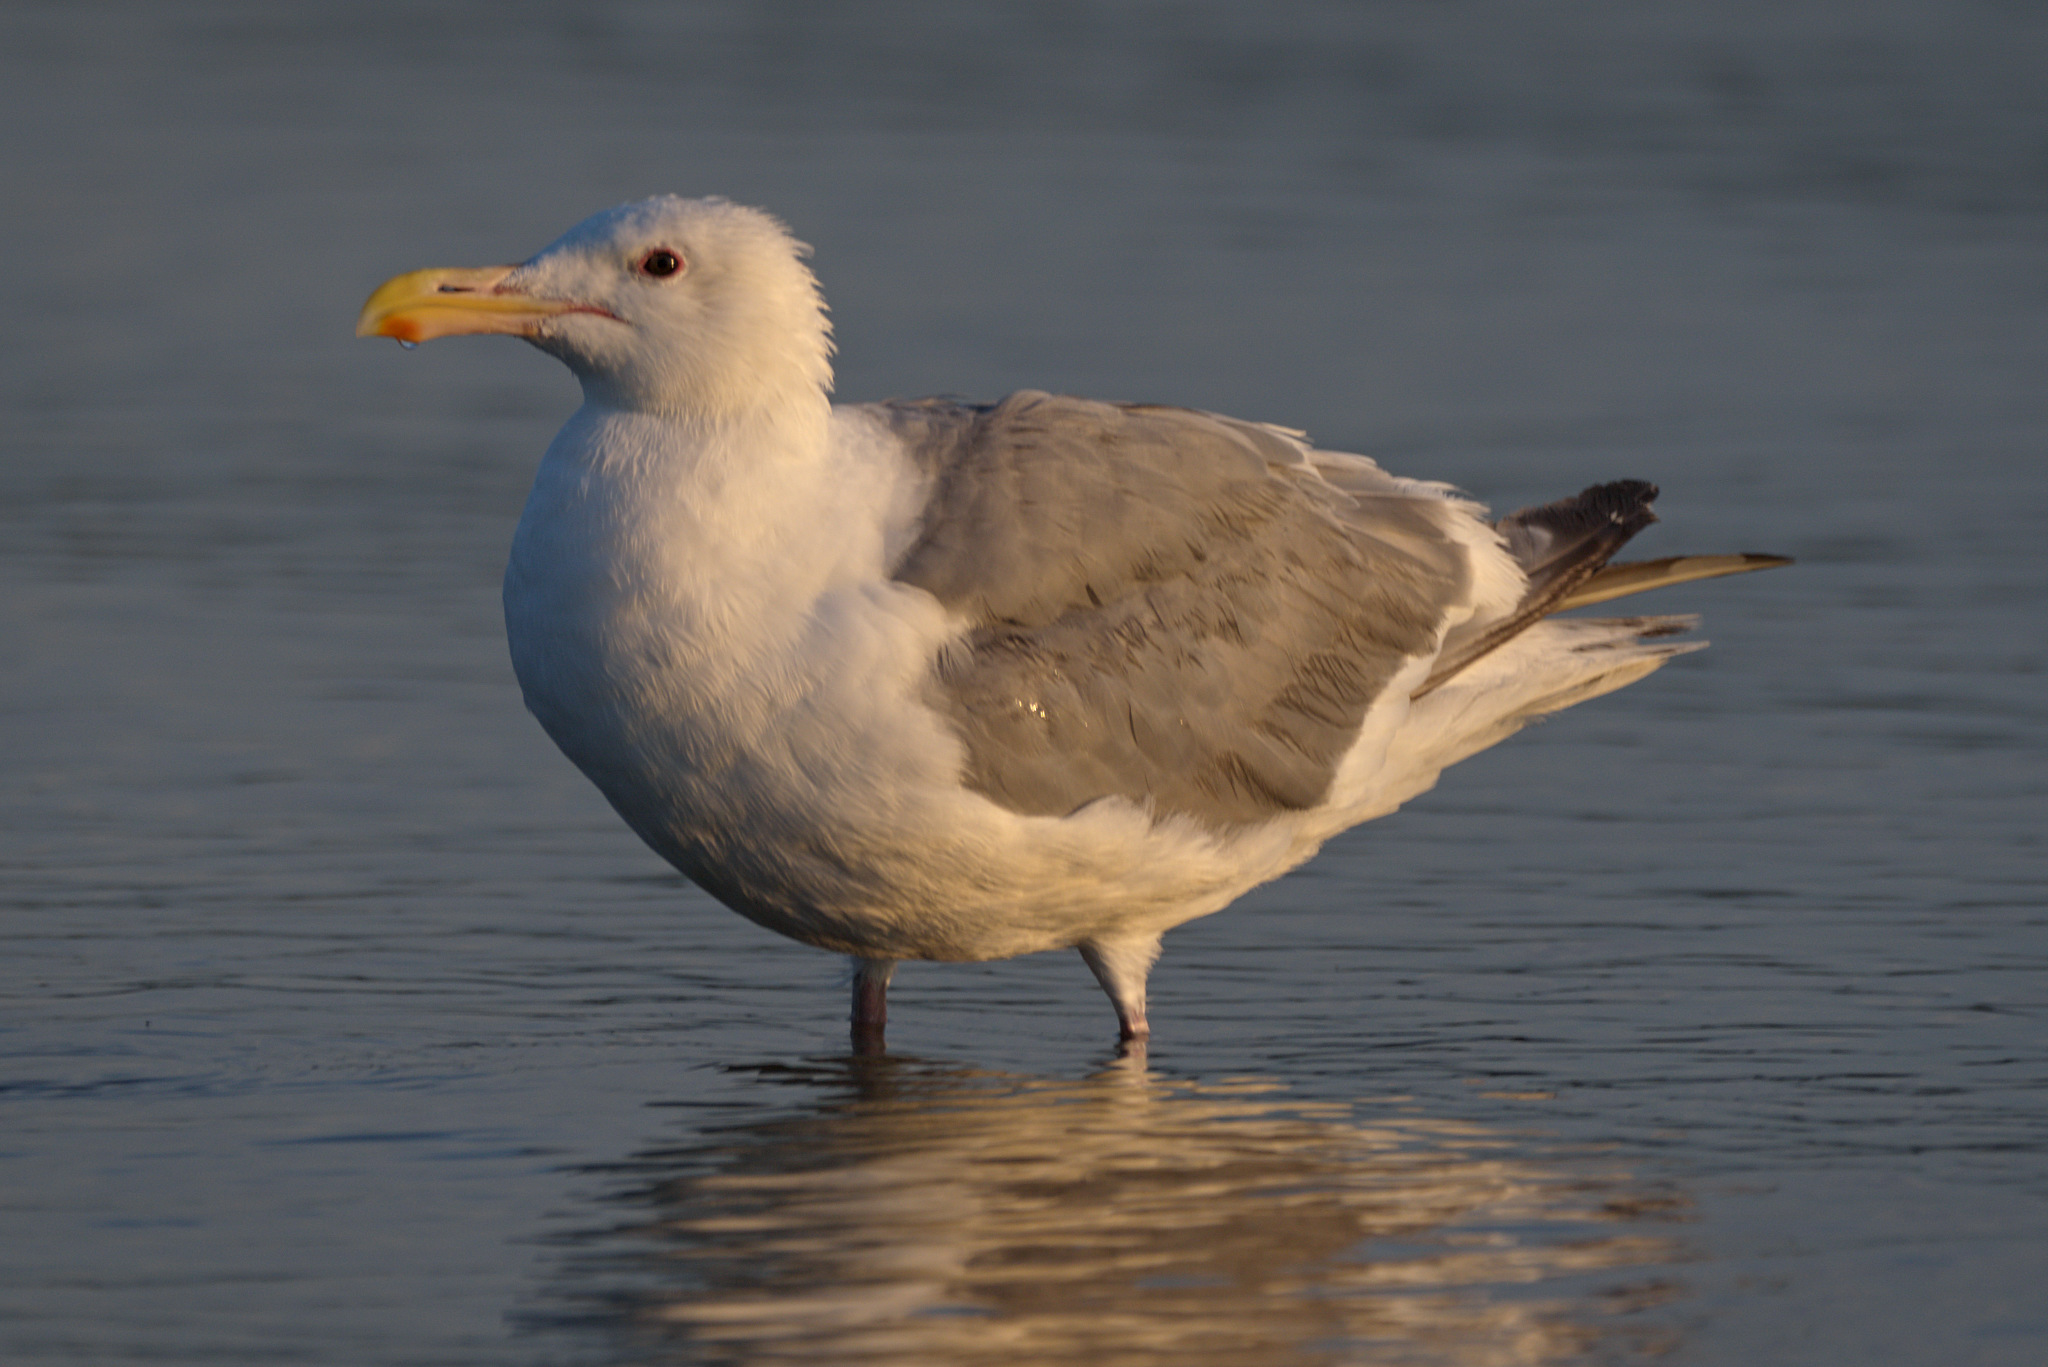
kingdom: Animalia
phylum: Chordata
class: Aves
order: Charadriiformes
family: Laridae
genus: Larus
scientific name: Larus
